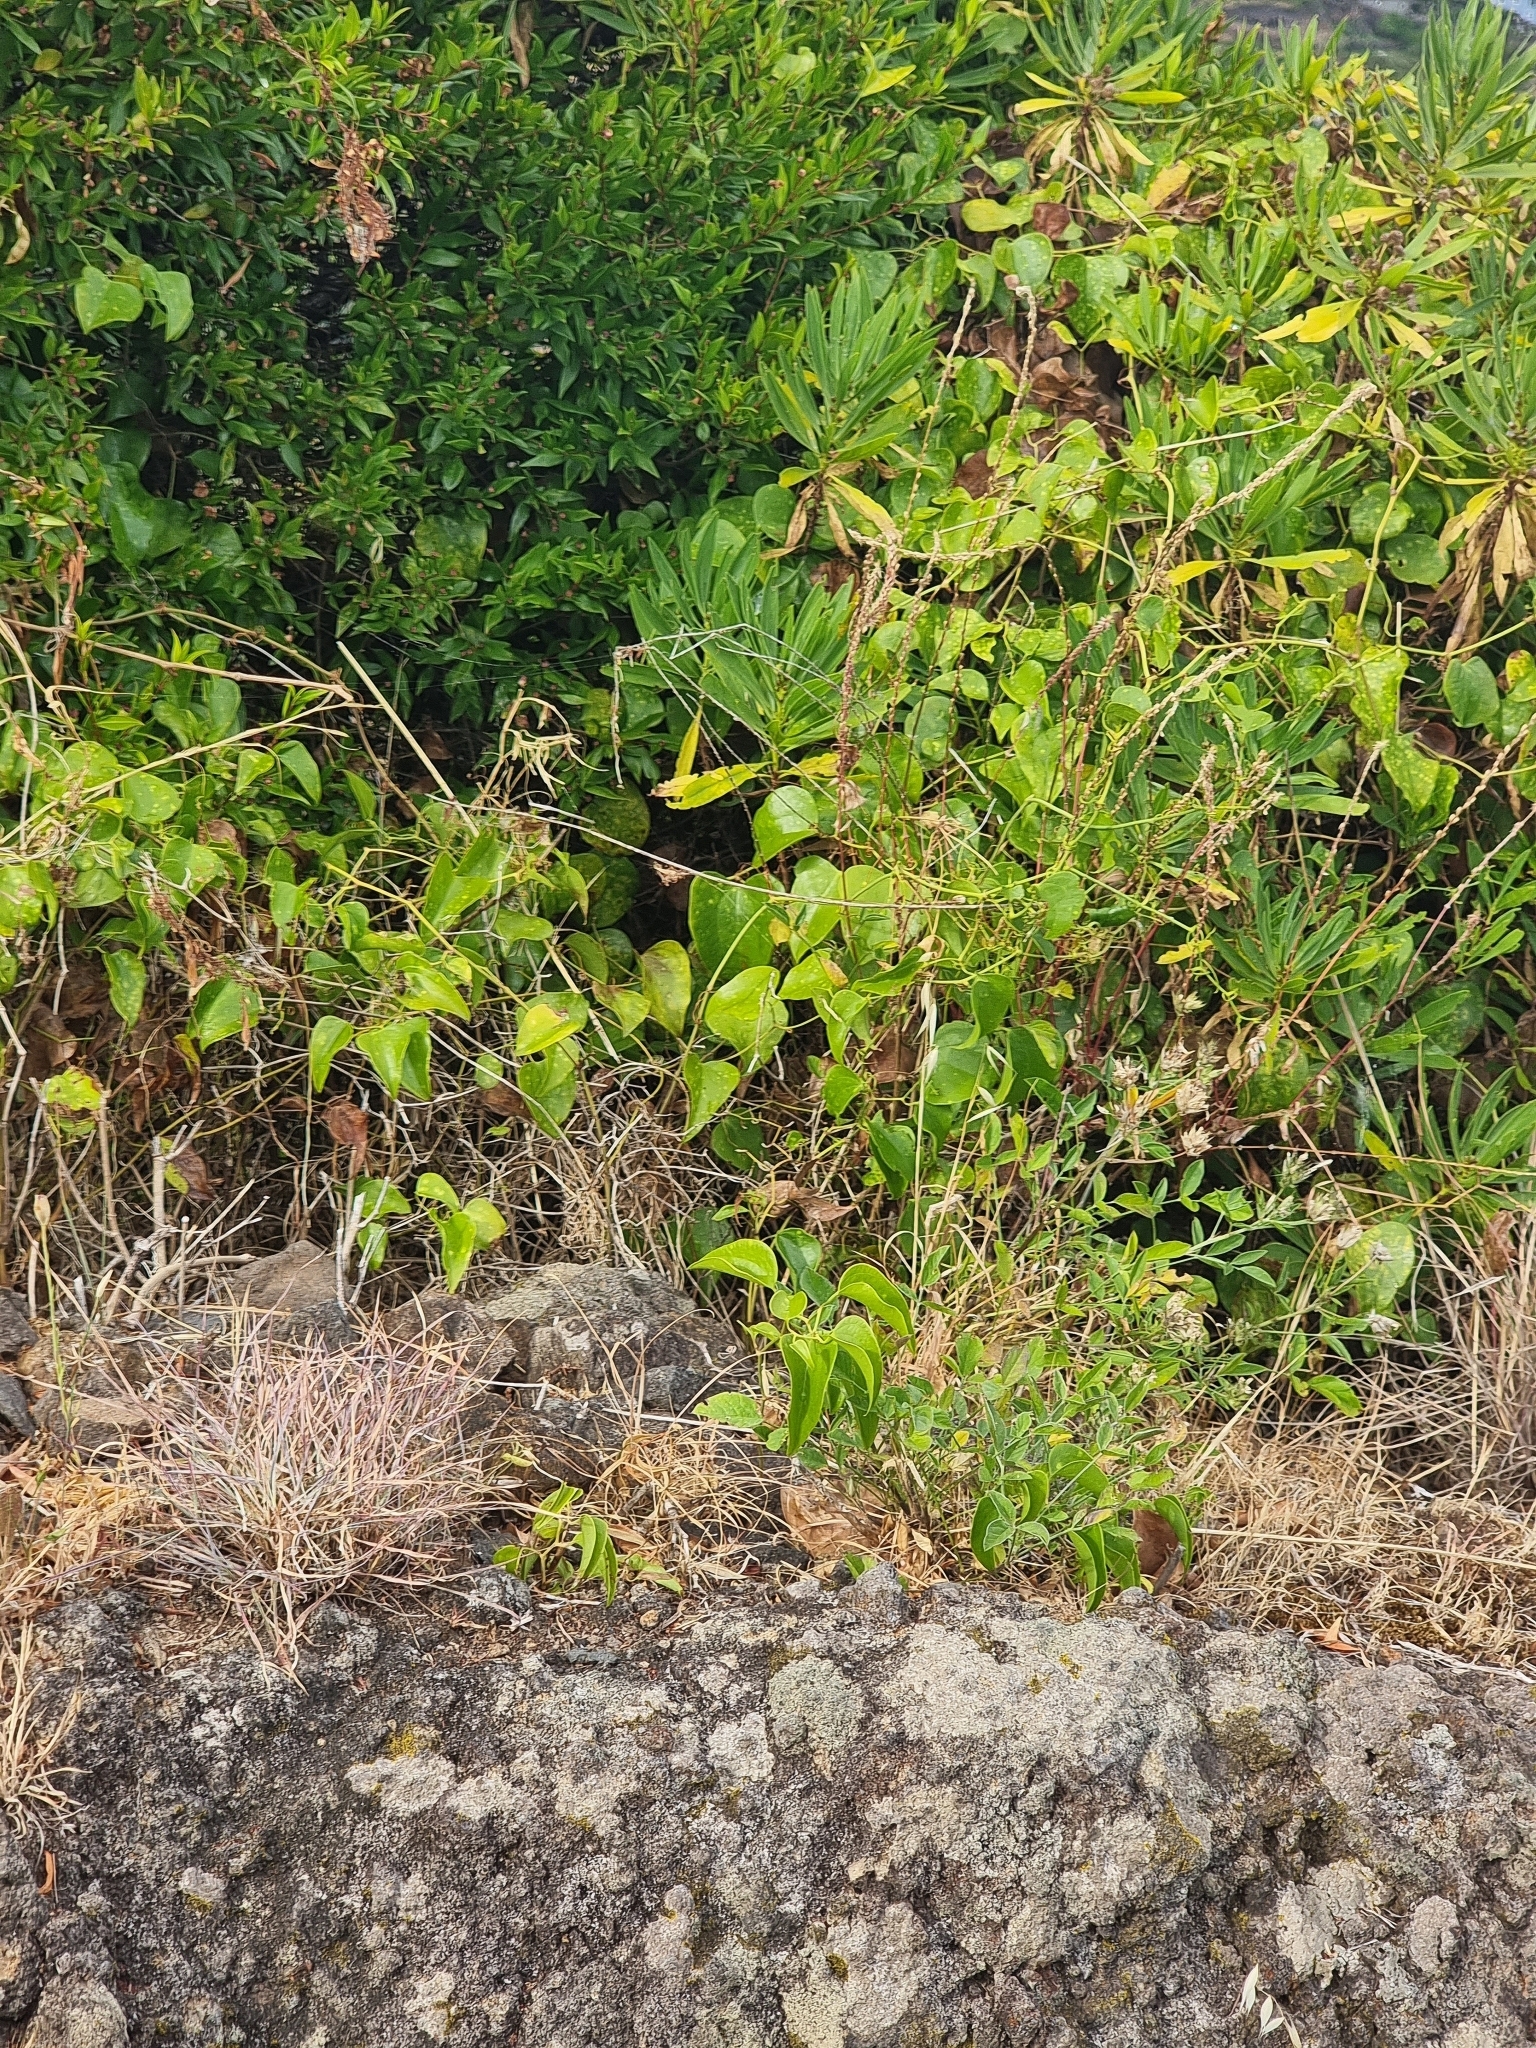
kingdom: Plantae
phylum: Tracheophyta
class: Liliopsida
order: Liliales
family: Smilacaceae
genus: Smilax
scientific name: Smilax aspera
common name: Common smilax
